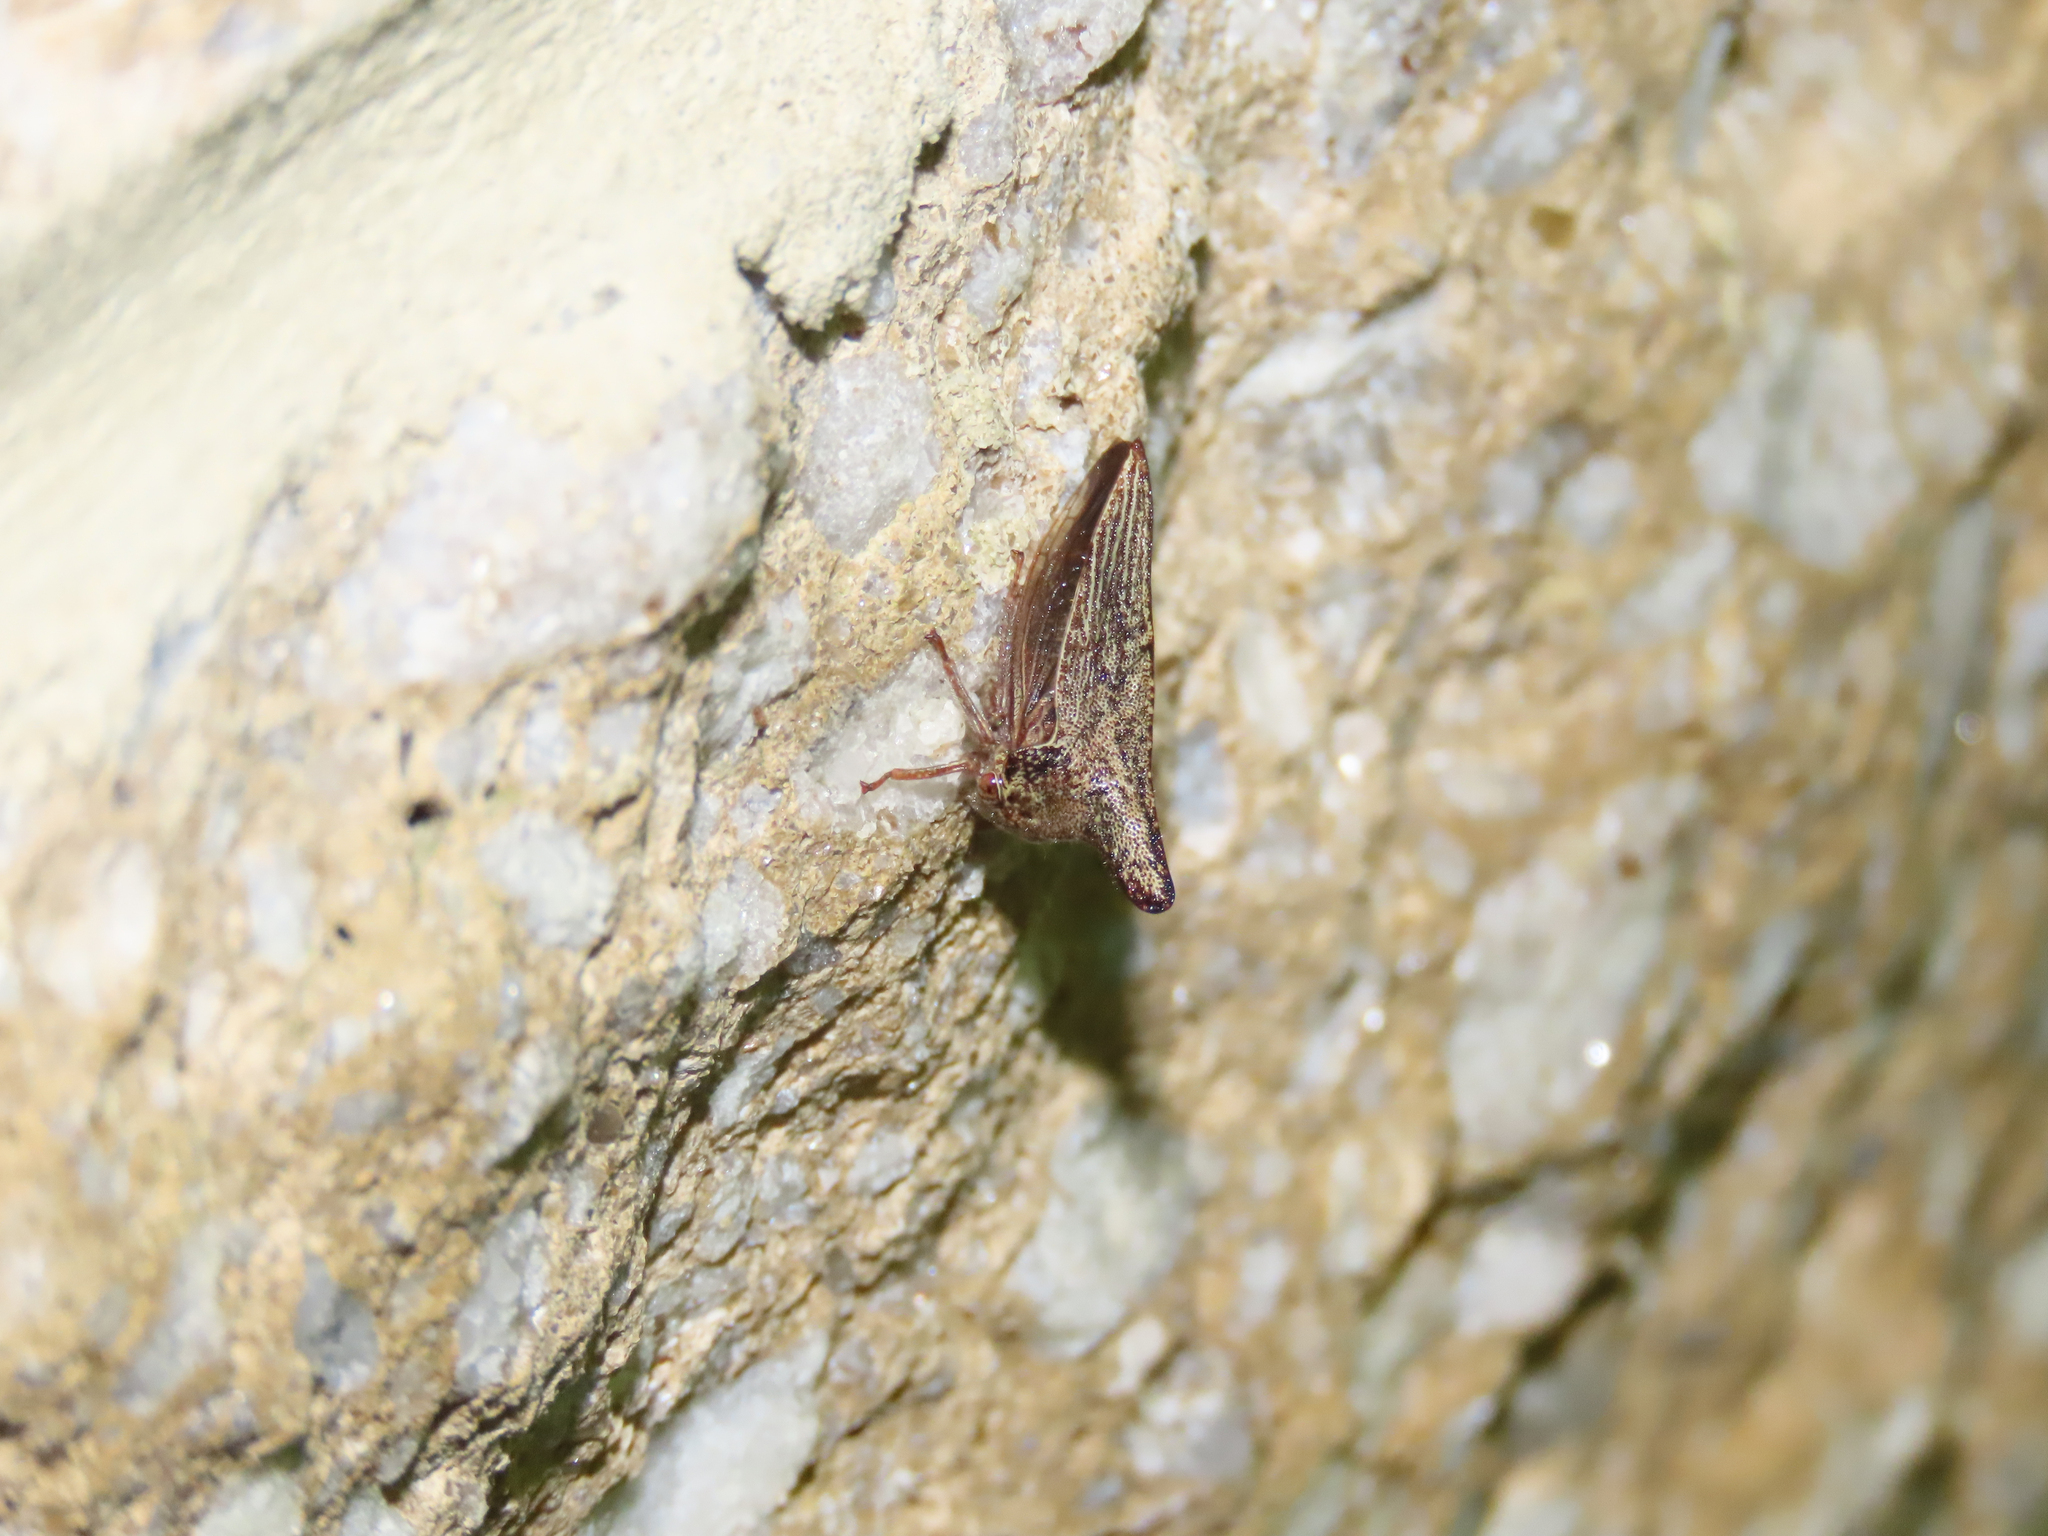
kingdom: Animalia
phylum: Arthropoda
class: Insecta
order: Hemiptera
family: Membracidae
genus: Thelia
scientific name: Thelia bimaculata
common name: Locust treehopper
